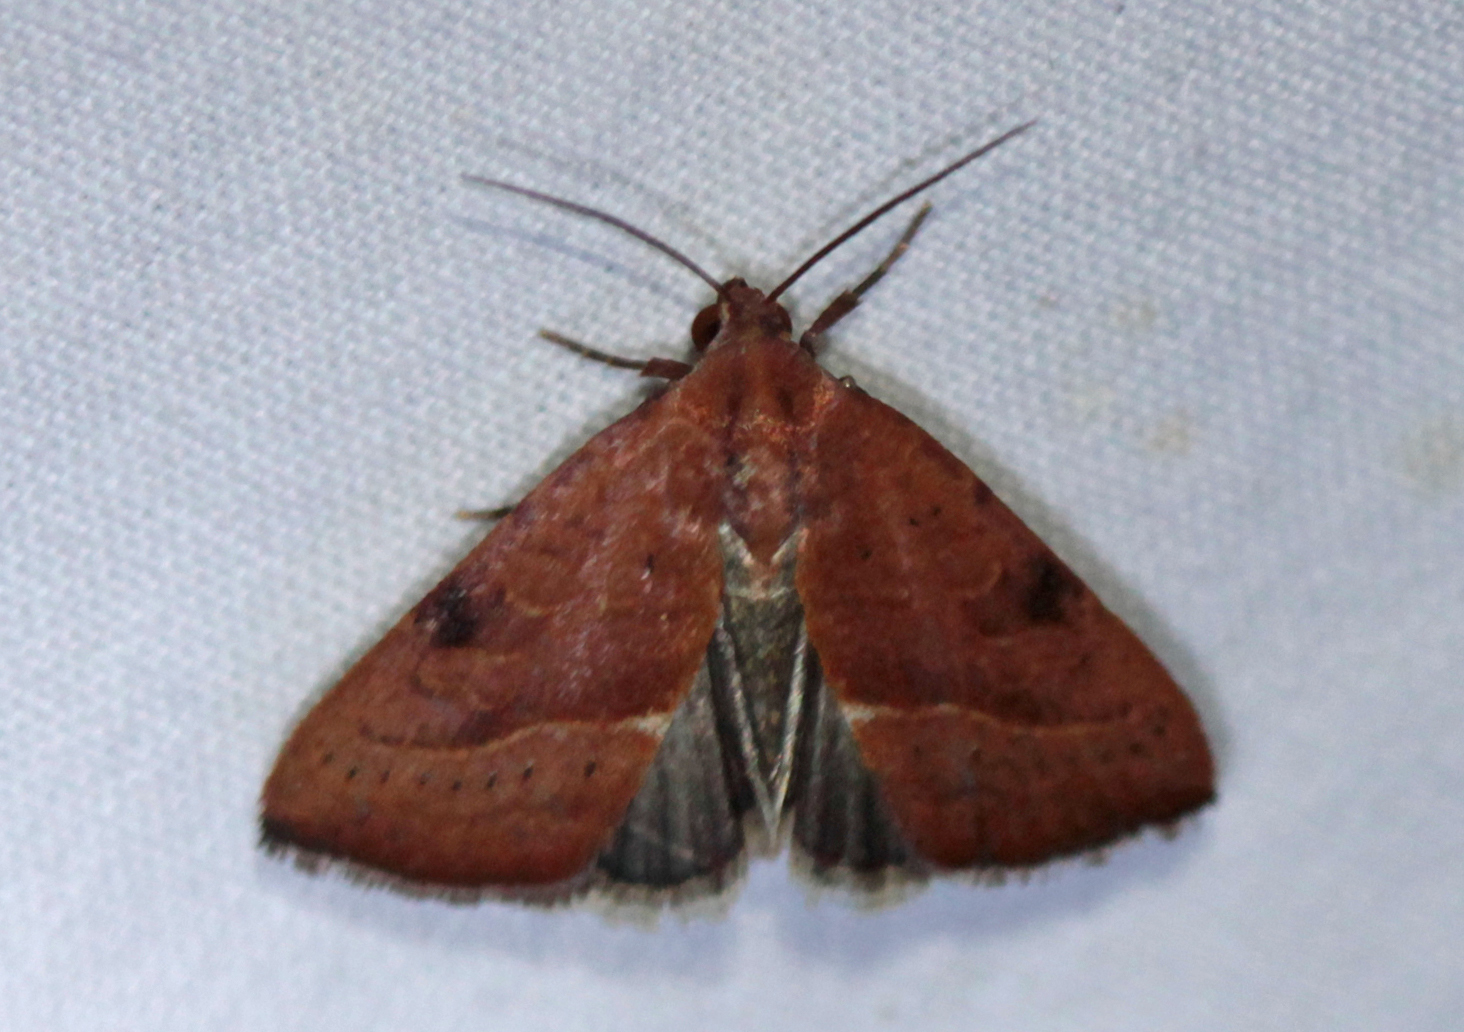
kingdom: Animalia
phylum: Arthropoda
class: Insecta
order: Lepidoptera
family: Noctuidae
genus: Galgula
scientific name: Galgula partita
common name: Wedgeling
